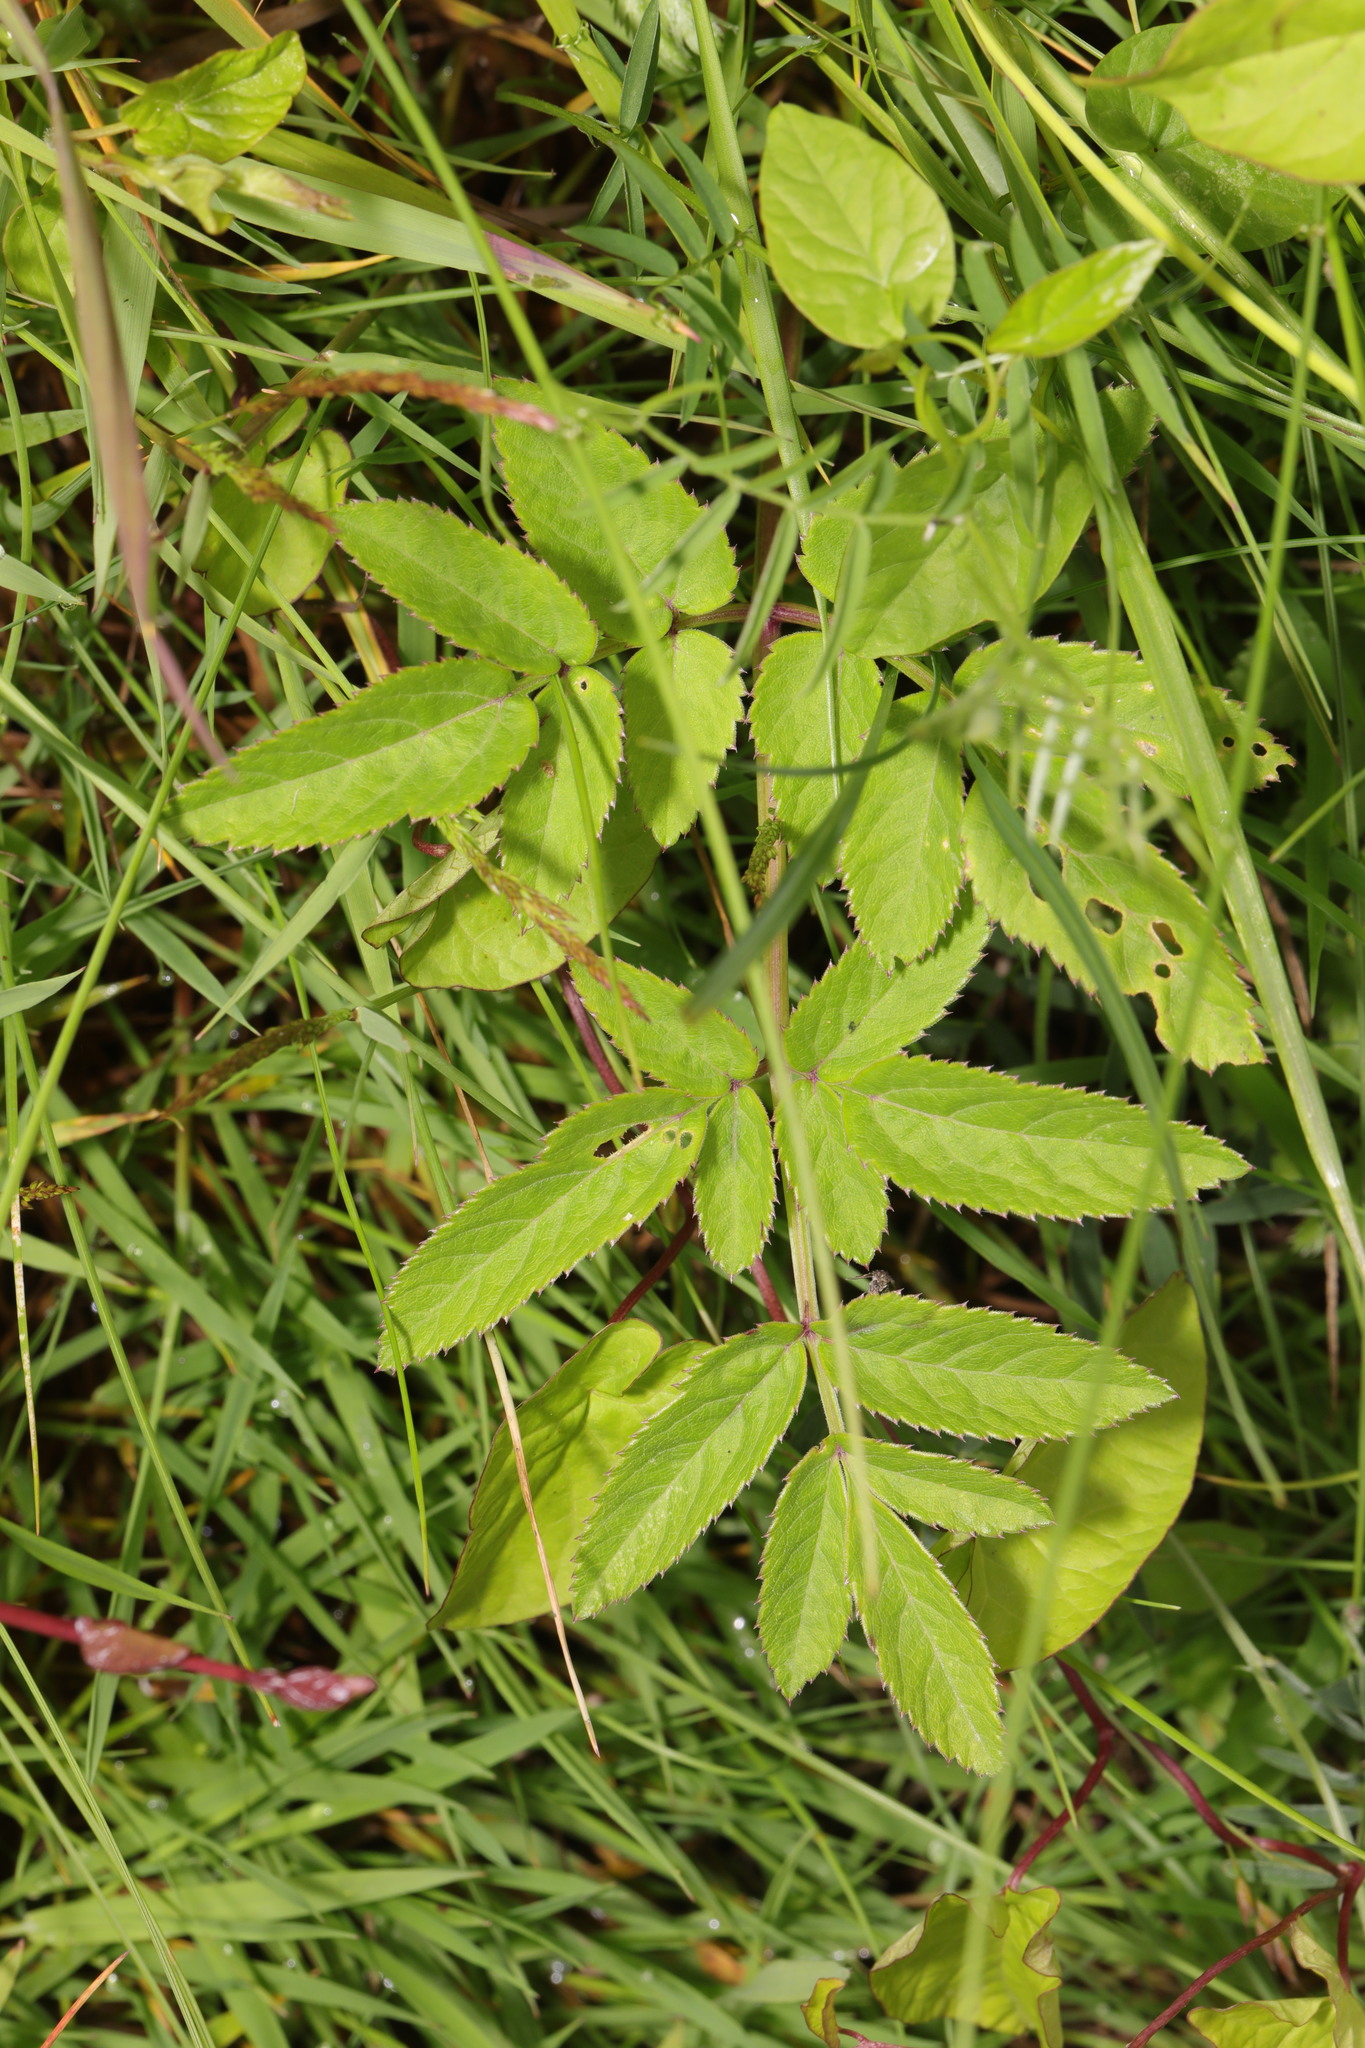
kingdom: Plantae
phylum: Tracheophyta
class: Magnoliopsida
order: Apiales
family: Apiaceae
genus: Angelica
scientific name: Angelica sylvestris
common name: Wild angelica
